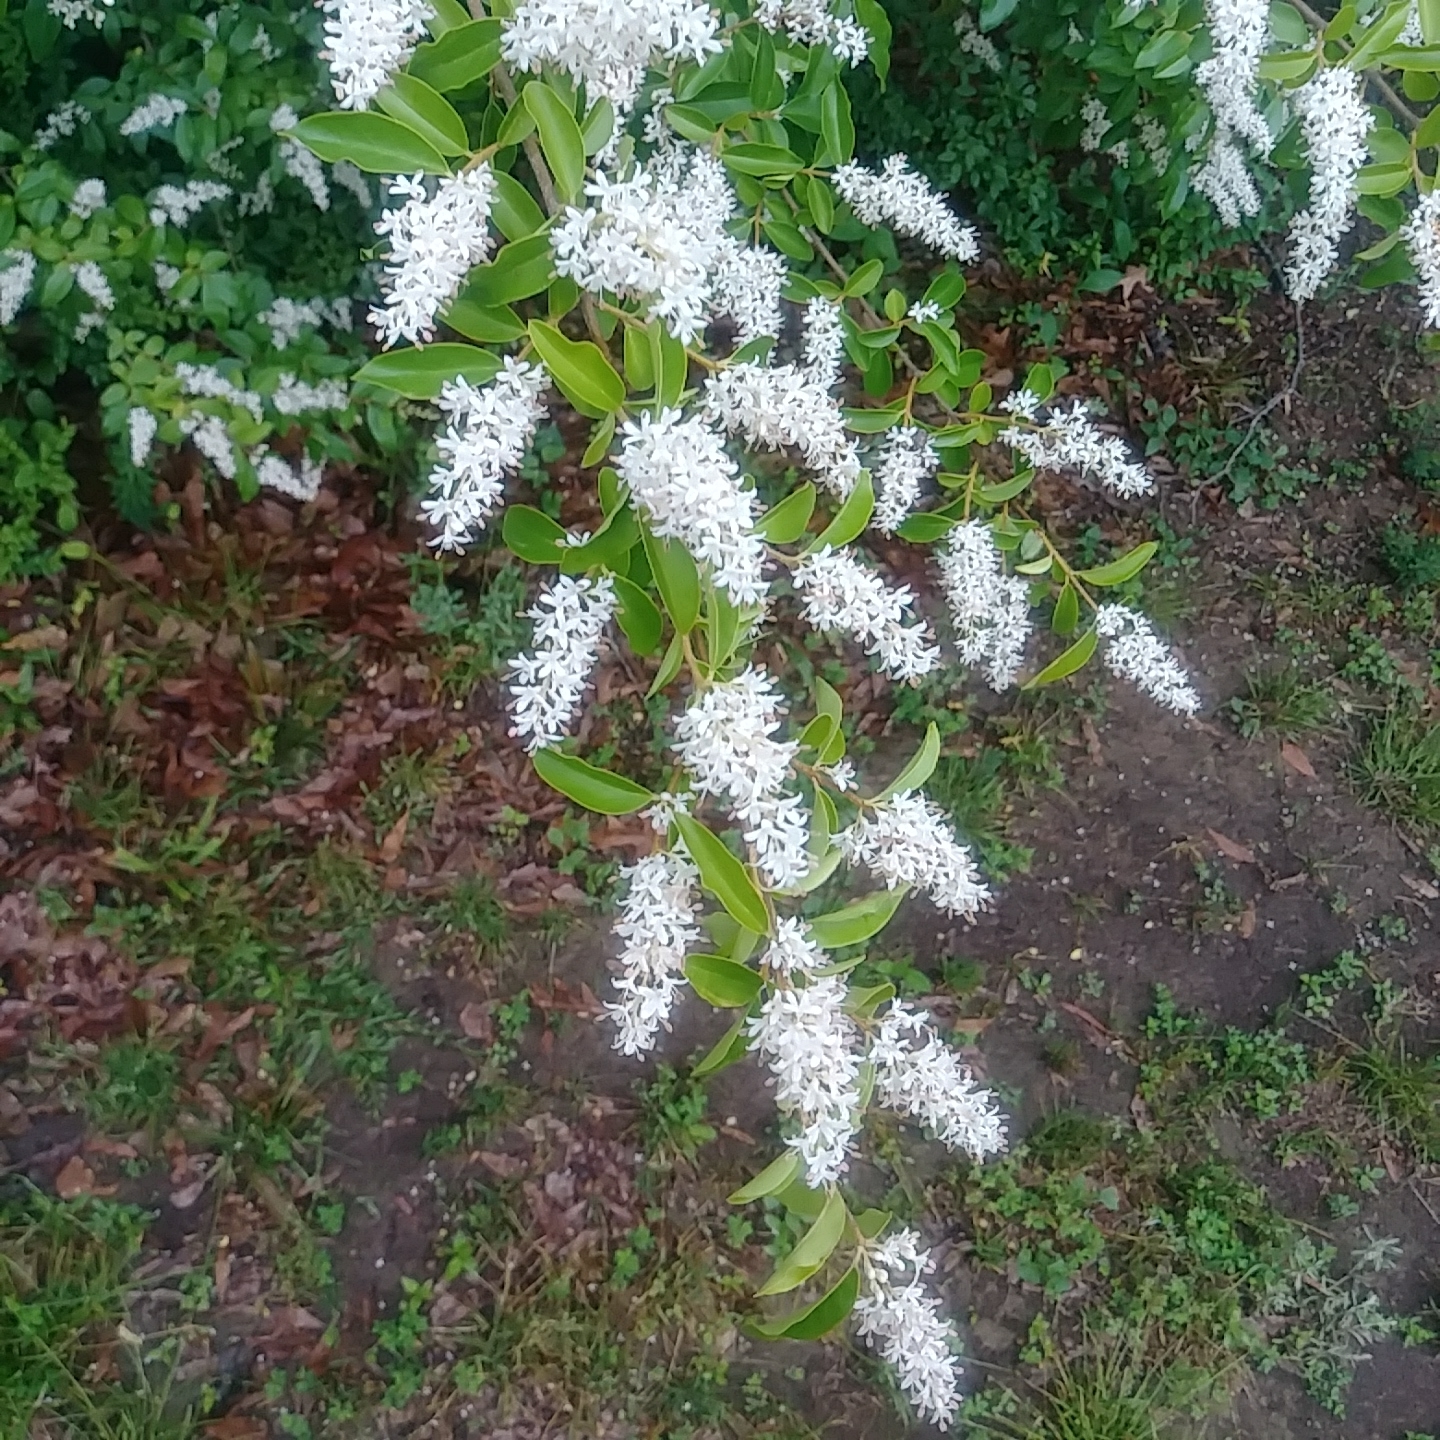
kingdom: Plantae
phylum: Tracheophyta
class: Magnoliopsida
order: Lamiales
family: Oleaceae
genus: Ligustrum
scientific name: Ligustrum sinense
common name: Chinese privet
